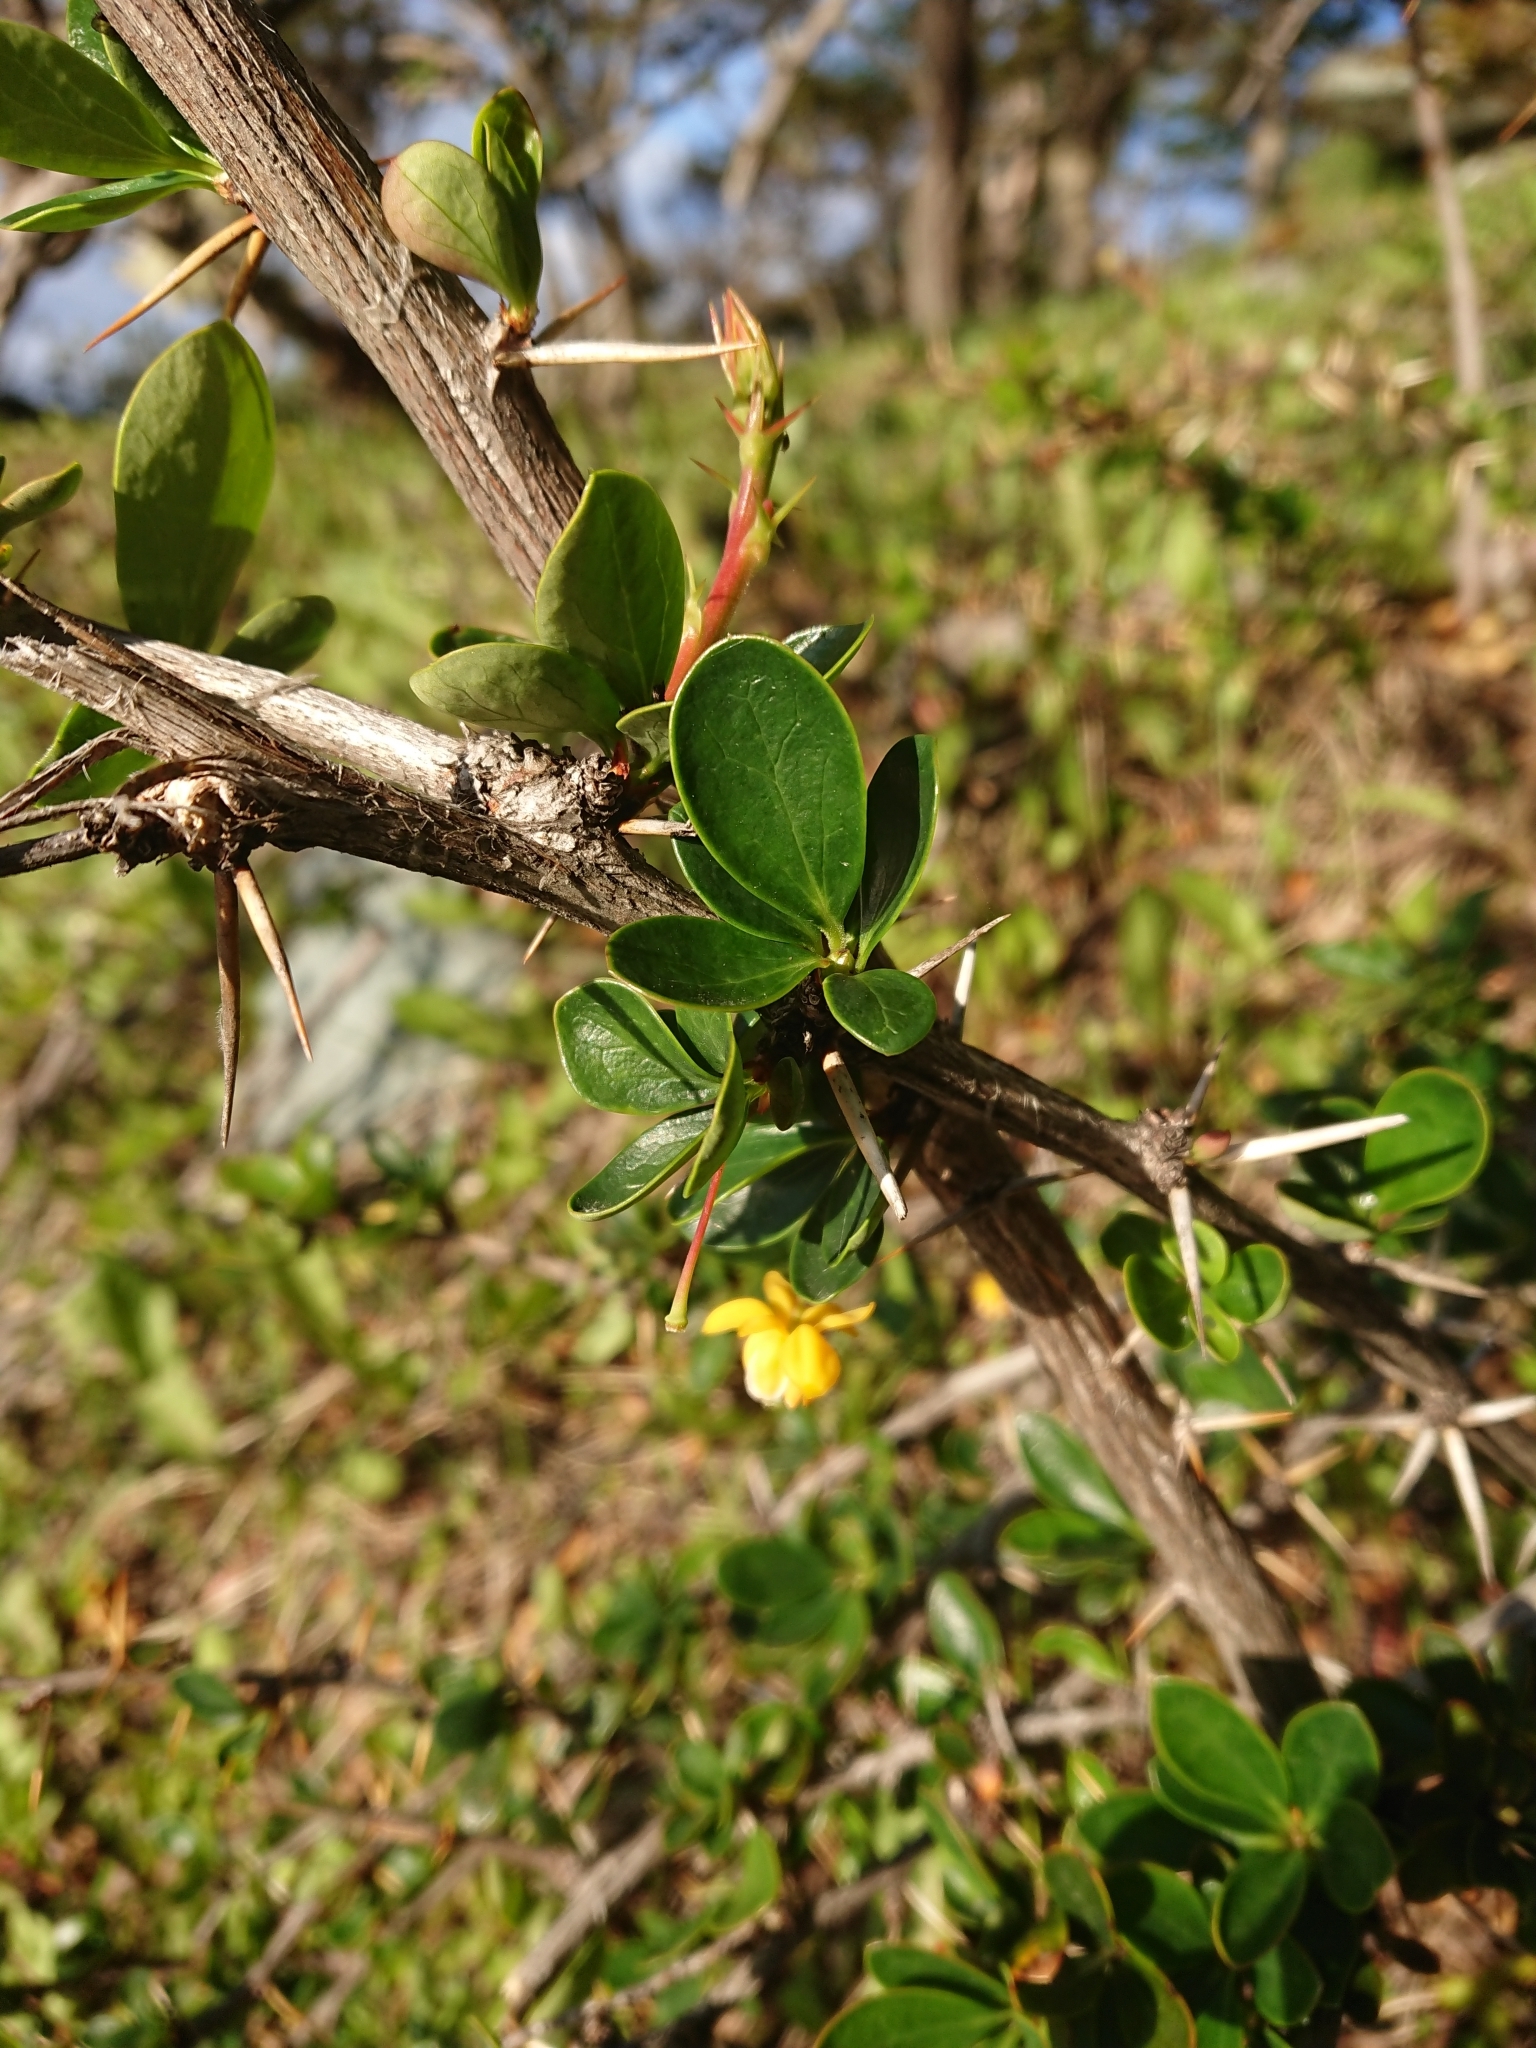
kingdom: Plantae
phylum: Tracheophyta
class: Magnoliopsida
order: Ranunculales
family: Berberidaceae
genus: Berberis
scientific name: Berberis microphylla
